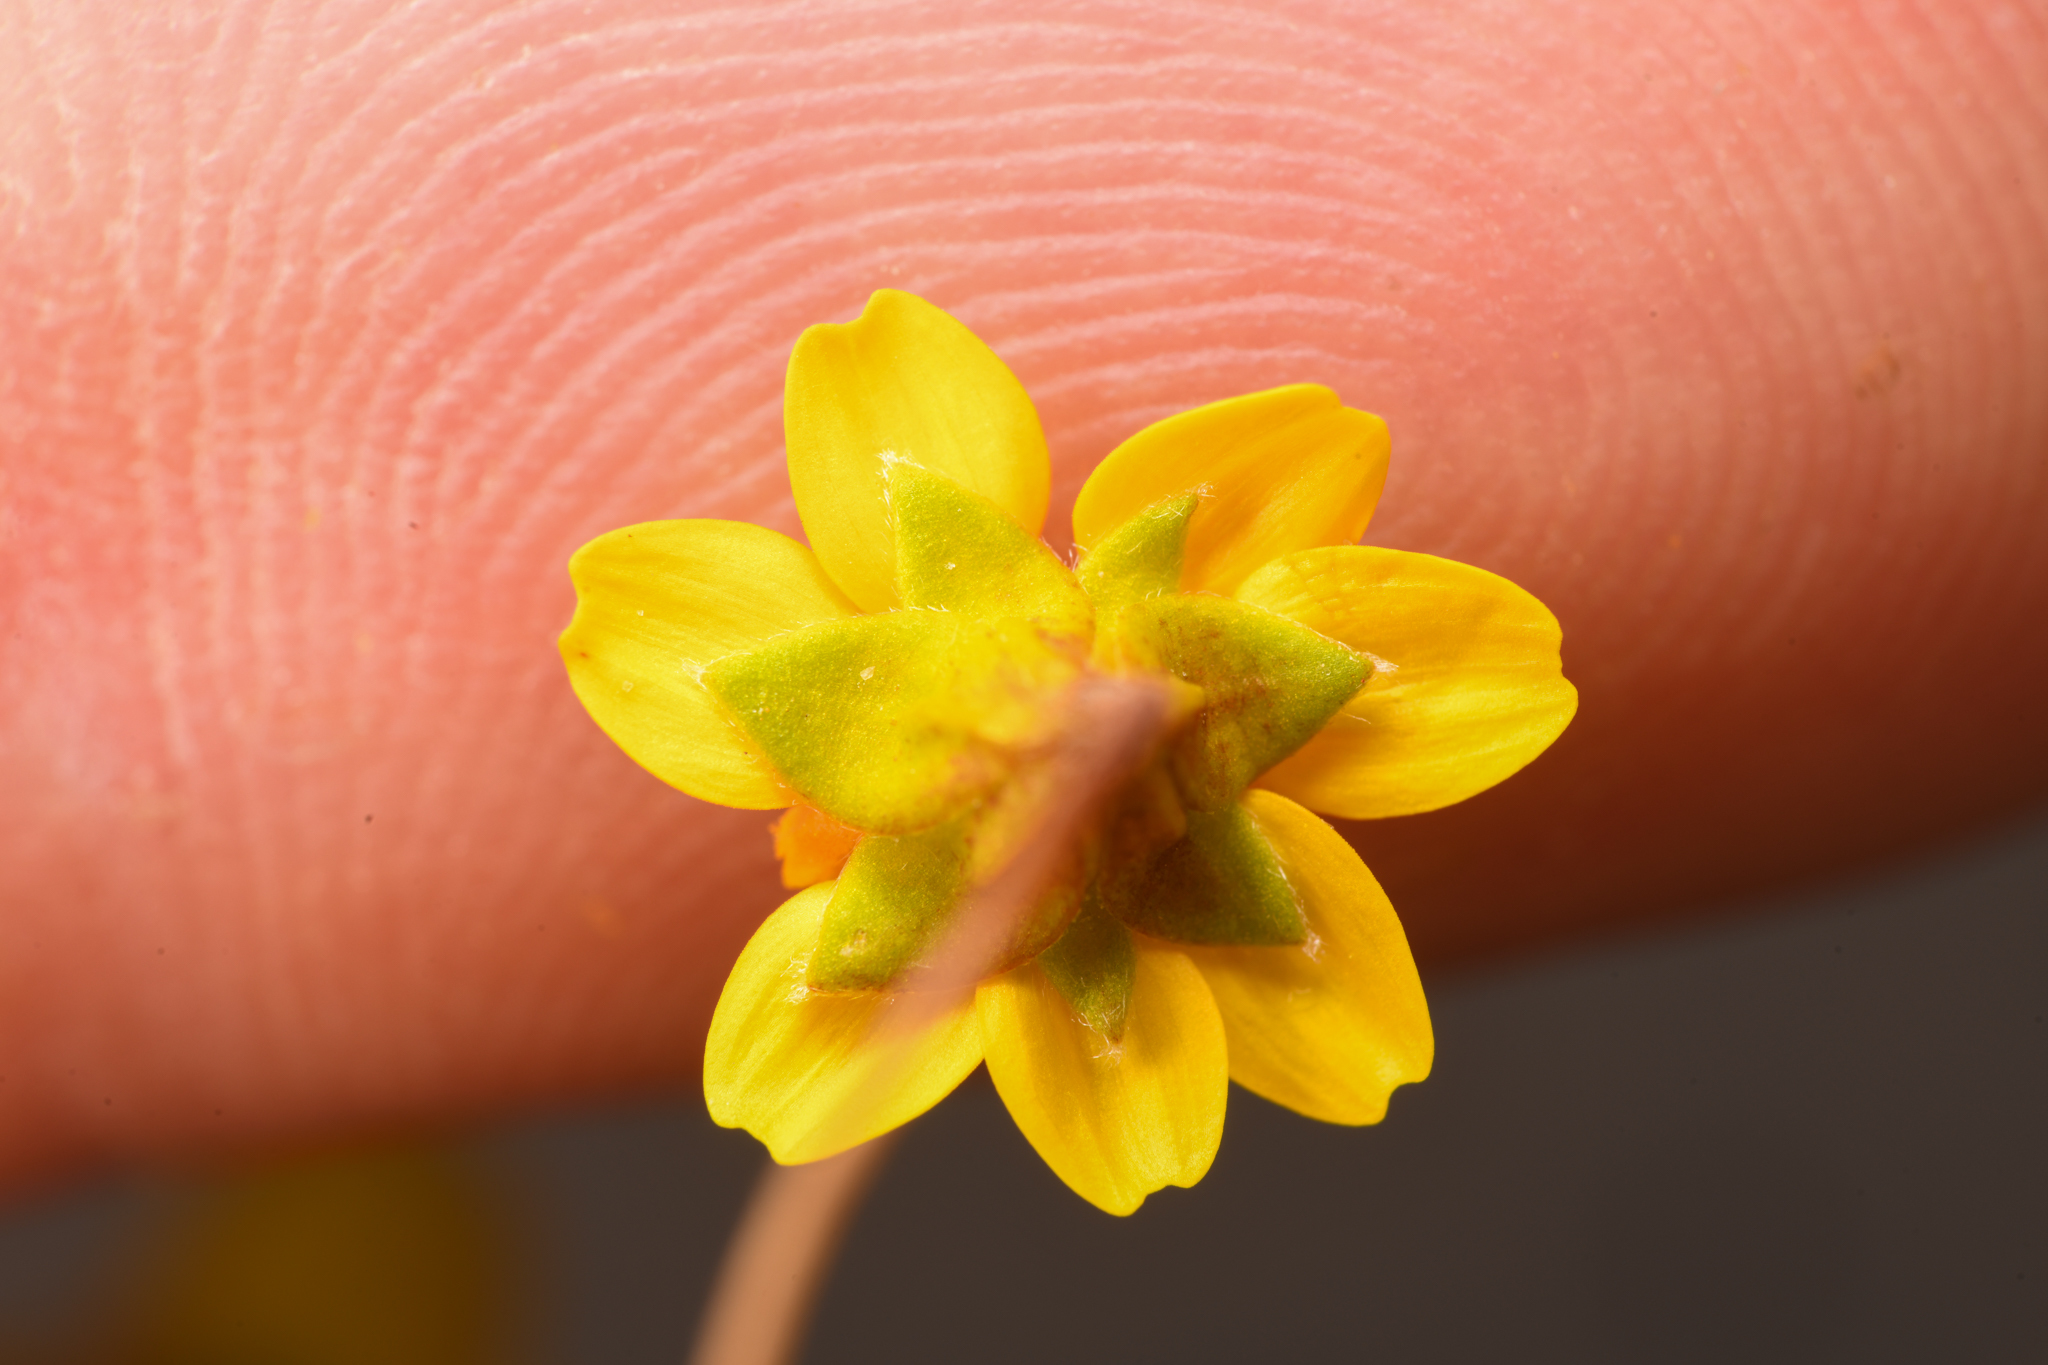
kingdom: Plantae
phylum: Tracheophyta
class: Magnoliopsida
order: Asterales
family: Asteraceae
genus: Lasthenia
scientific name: Lasthenia leptalea
